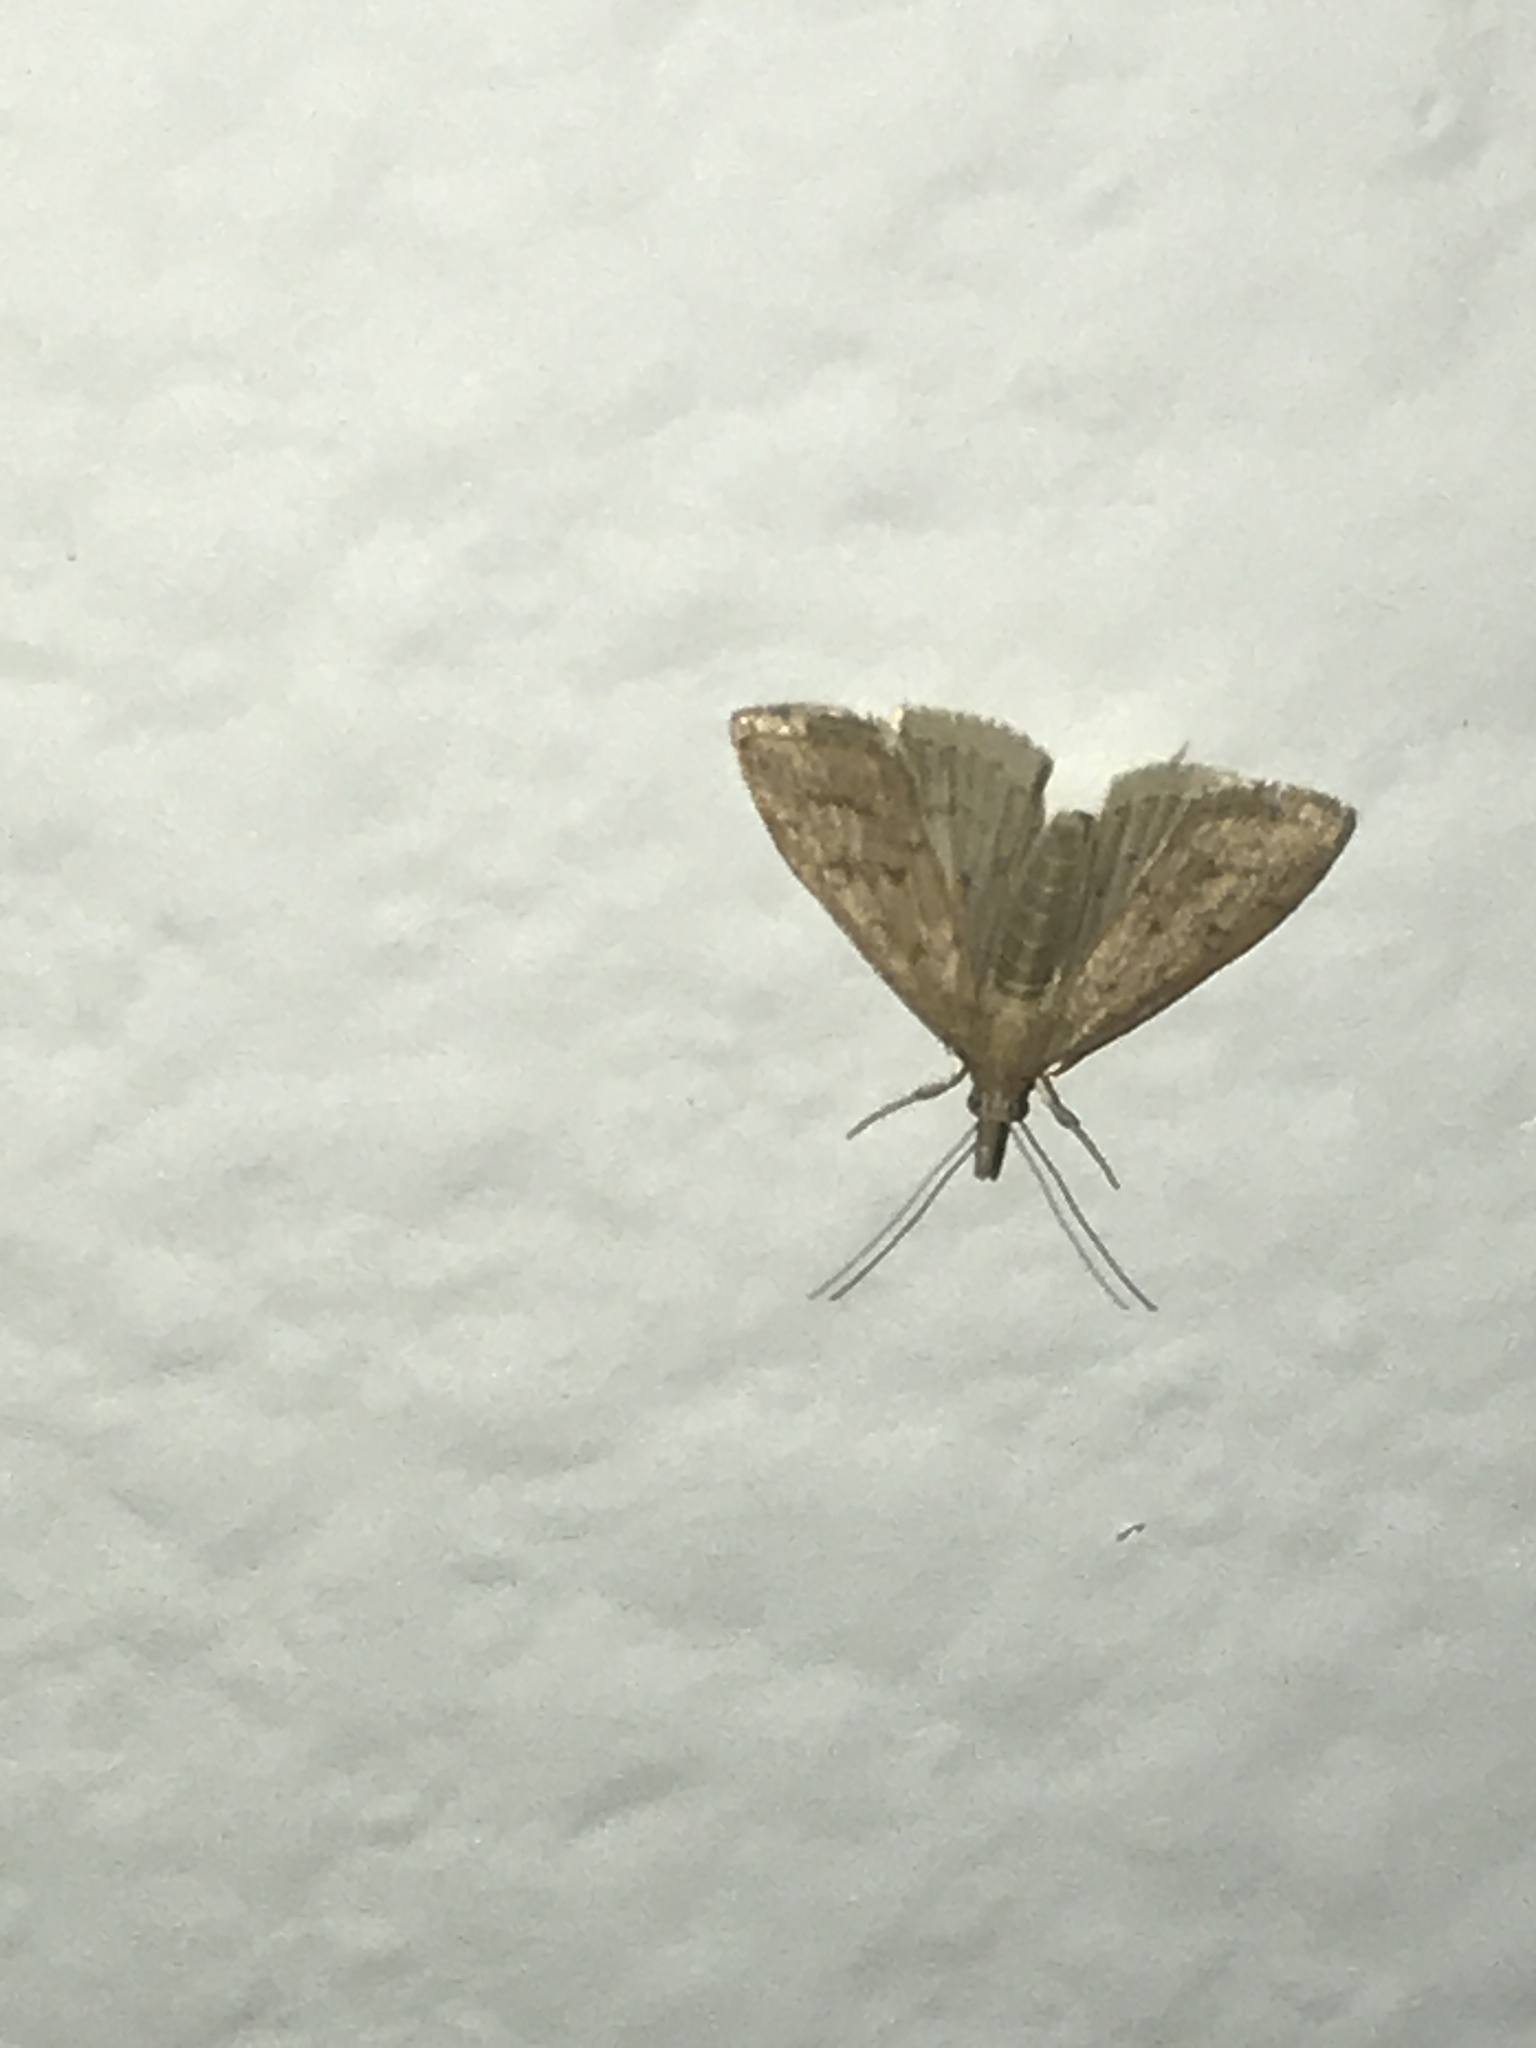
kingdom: Animalia
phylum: Arthropoda
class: Insecta
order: Lepidoptera
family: Crambidae
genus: Udea
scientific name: Udea rubigalis
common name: Celery leaftier moth
